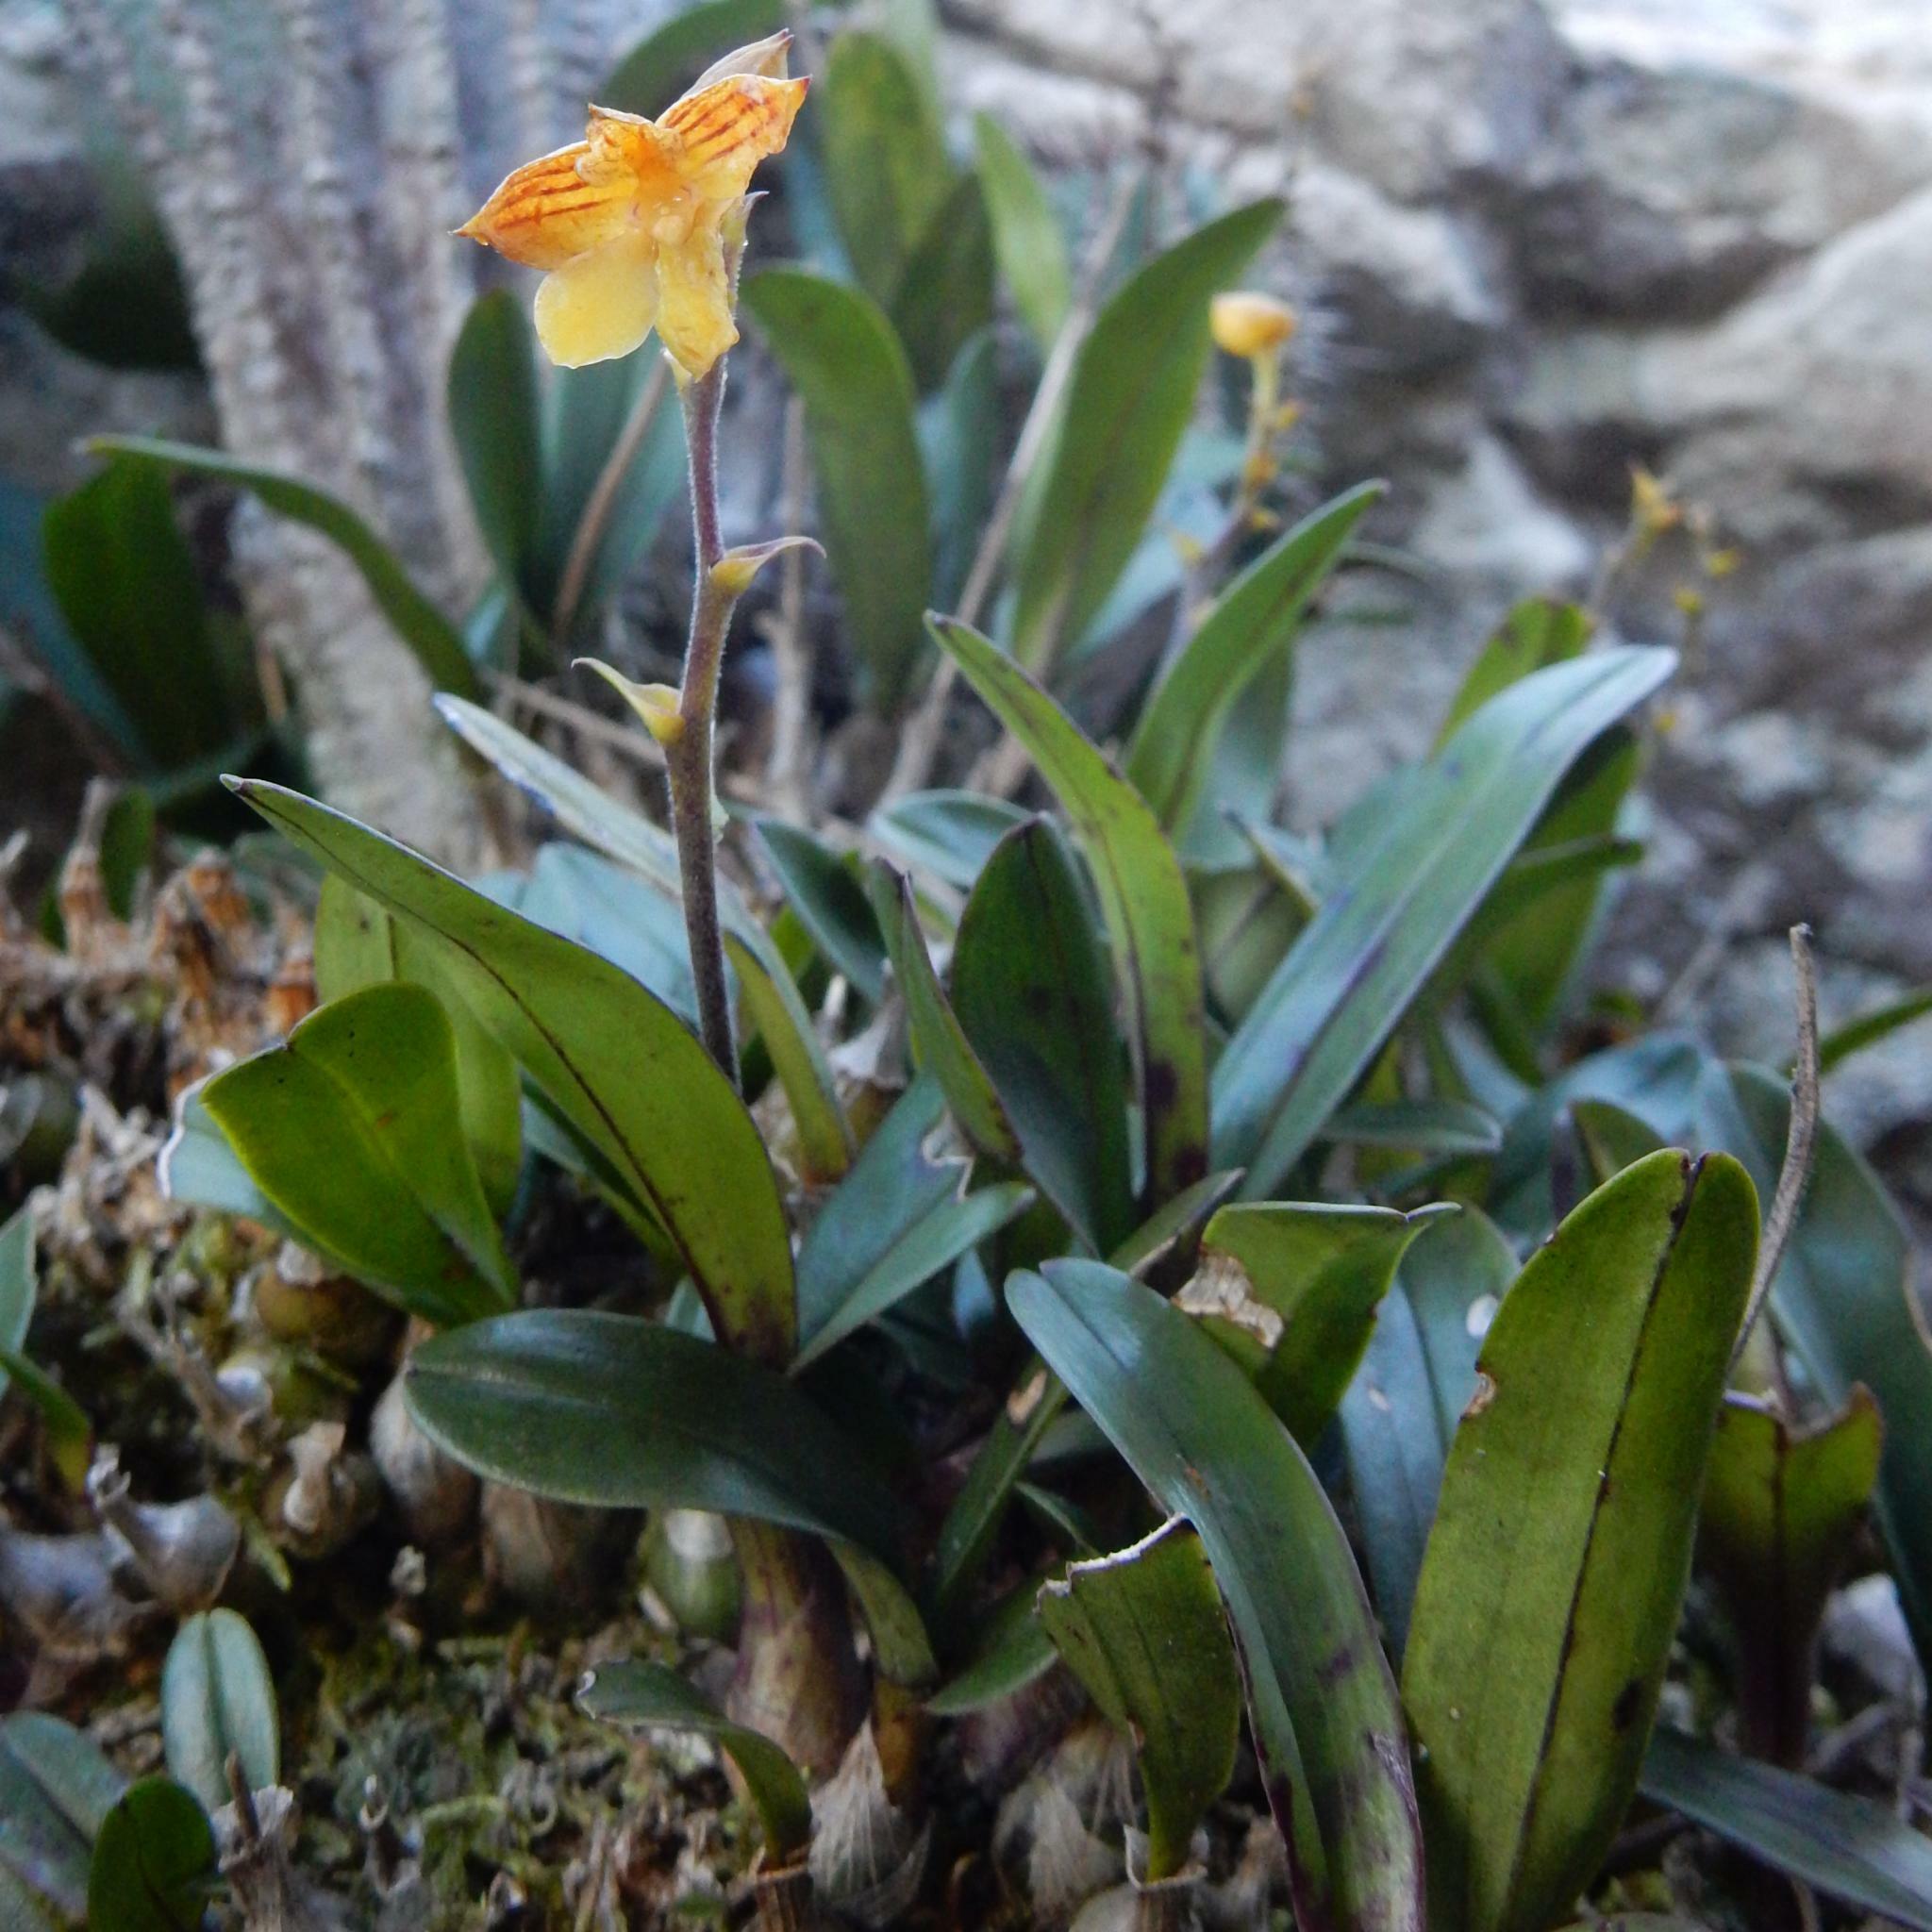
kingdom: Plantae
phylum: Tracheophyta
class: Liliopsida
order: Asparagales
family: Orchidaceae
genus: Polystachya
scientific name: Polystachya pubescens
